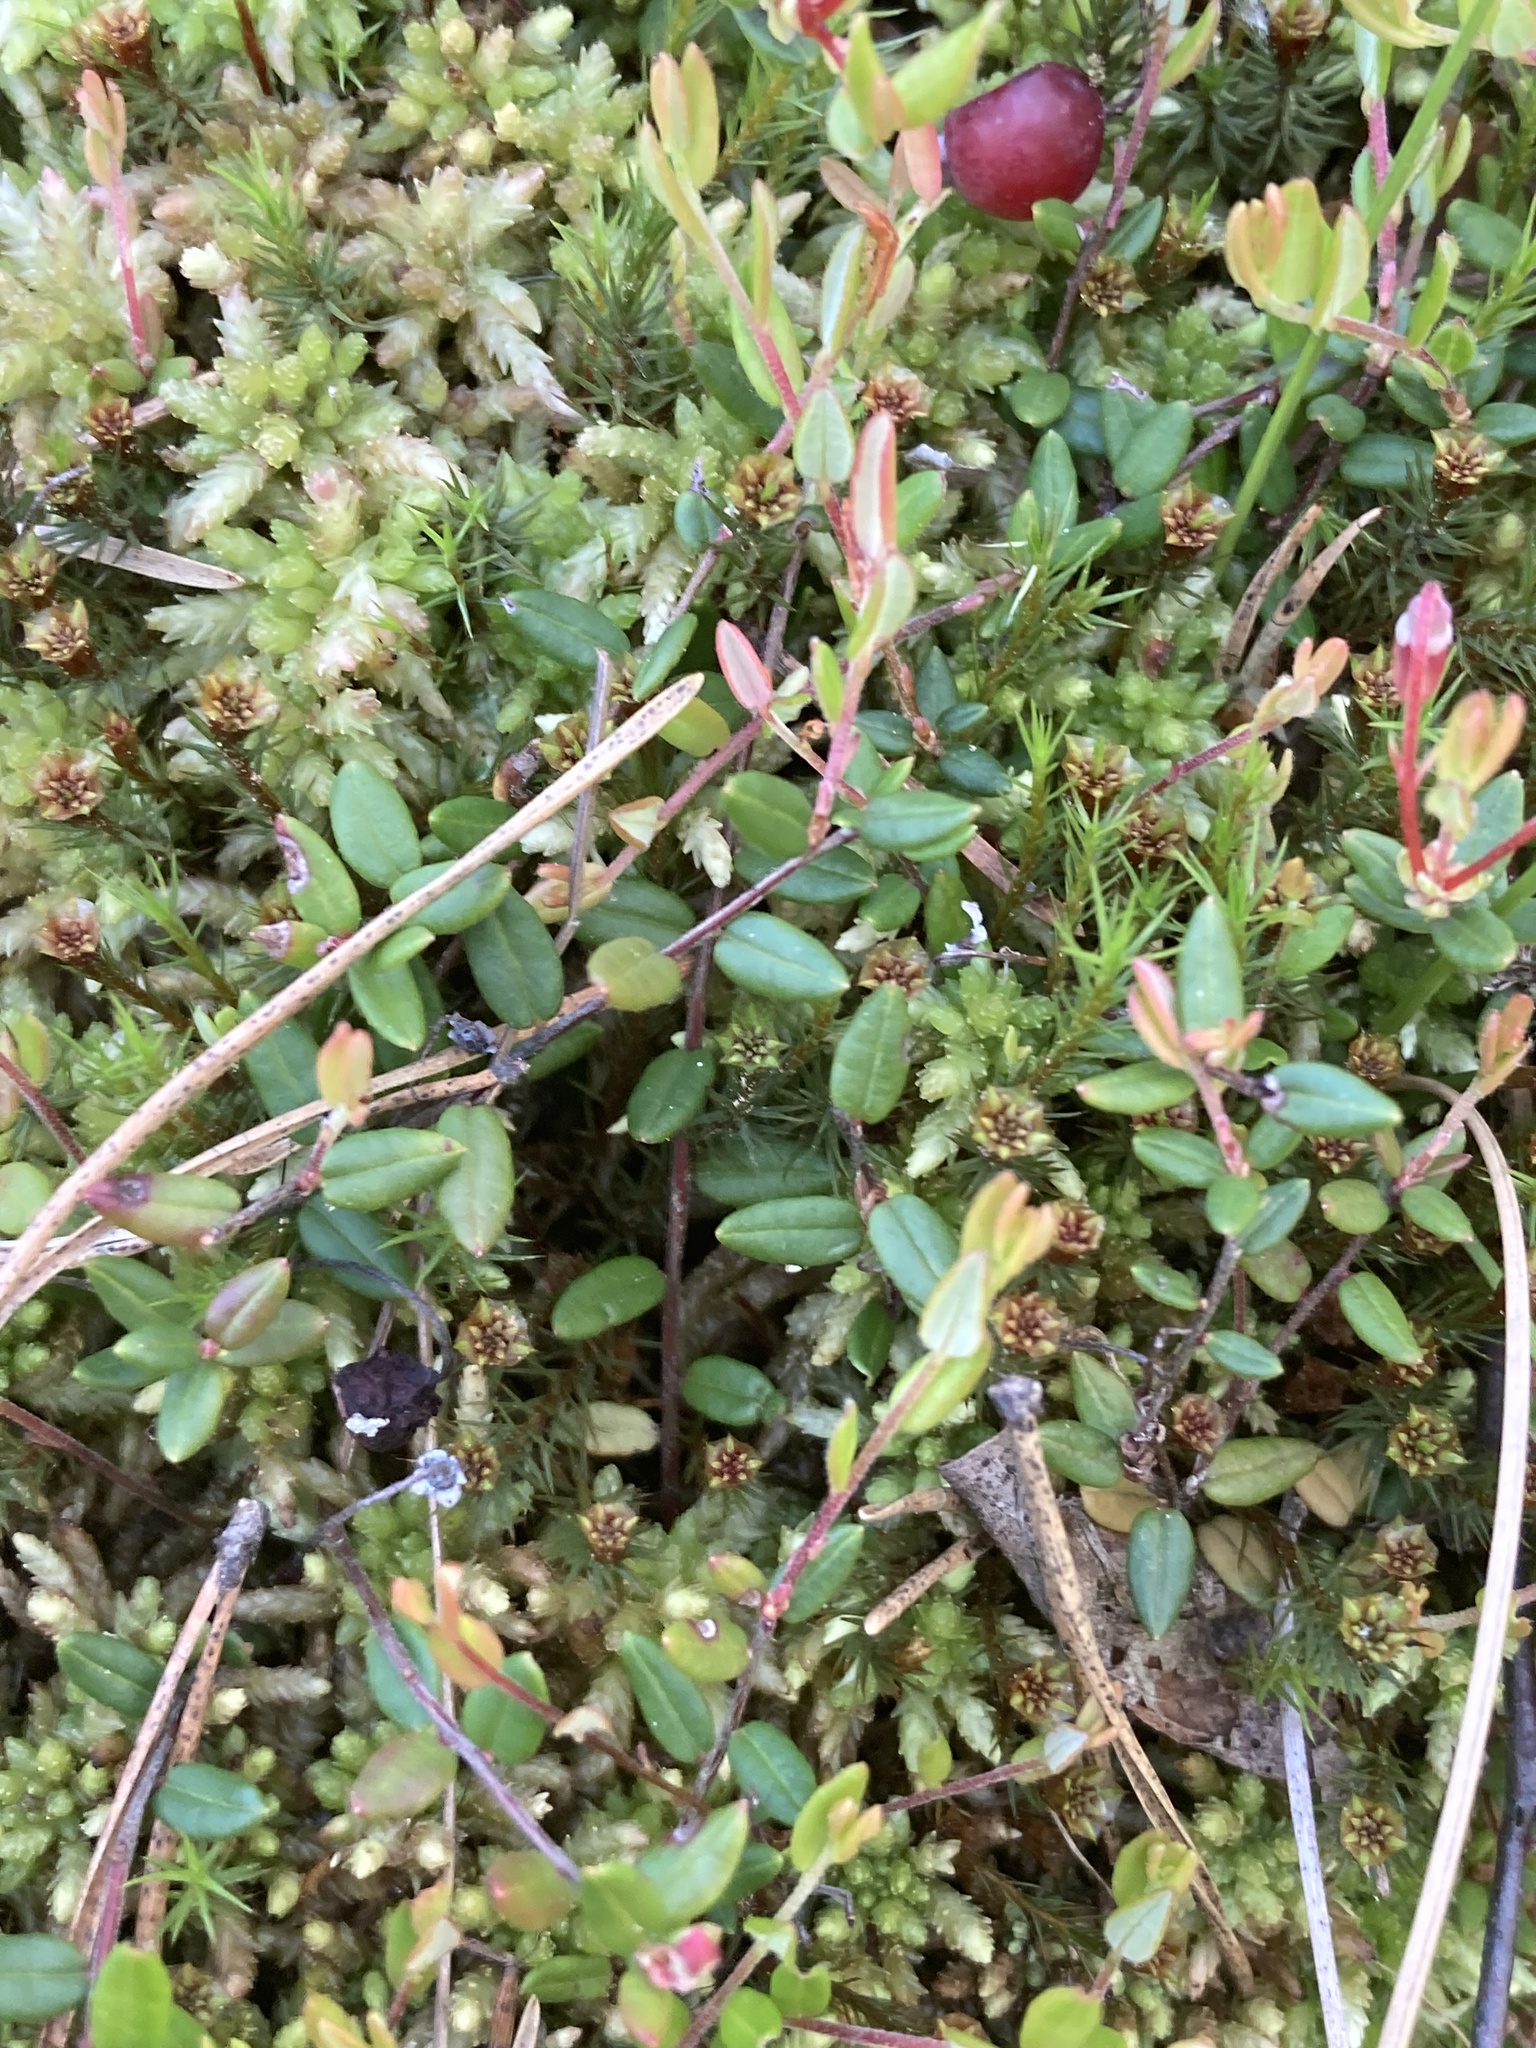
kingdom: Plantae
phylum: Tracheophyta
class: Magnoliopsida
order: Ericales
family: Ericaceae
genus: Vaccinium
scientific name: Vaccinium oxycoccos
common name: Cranberry
